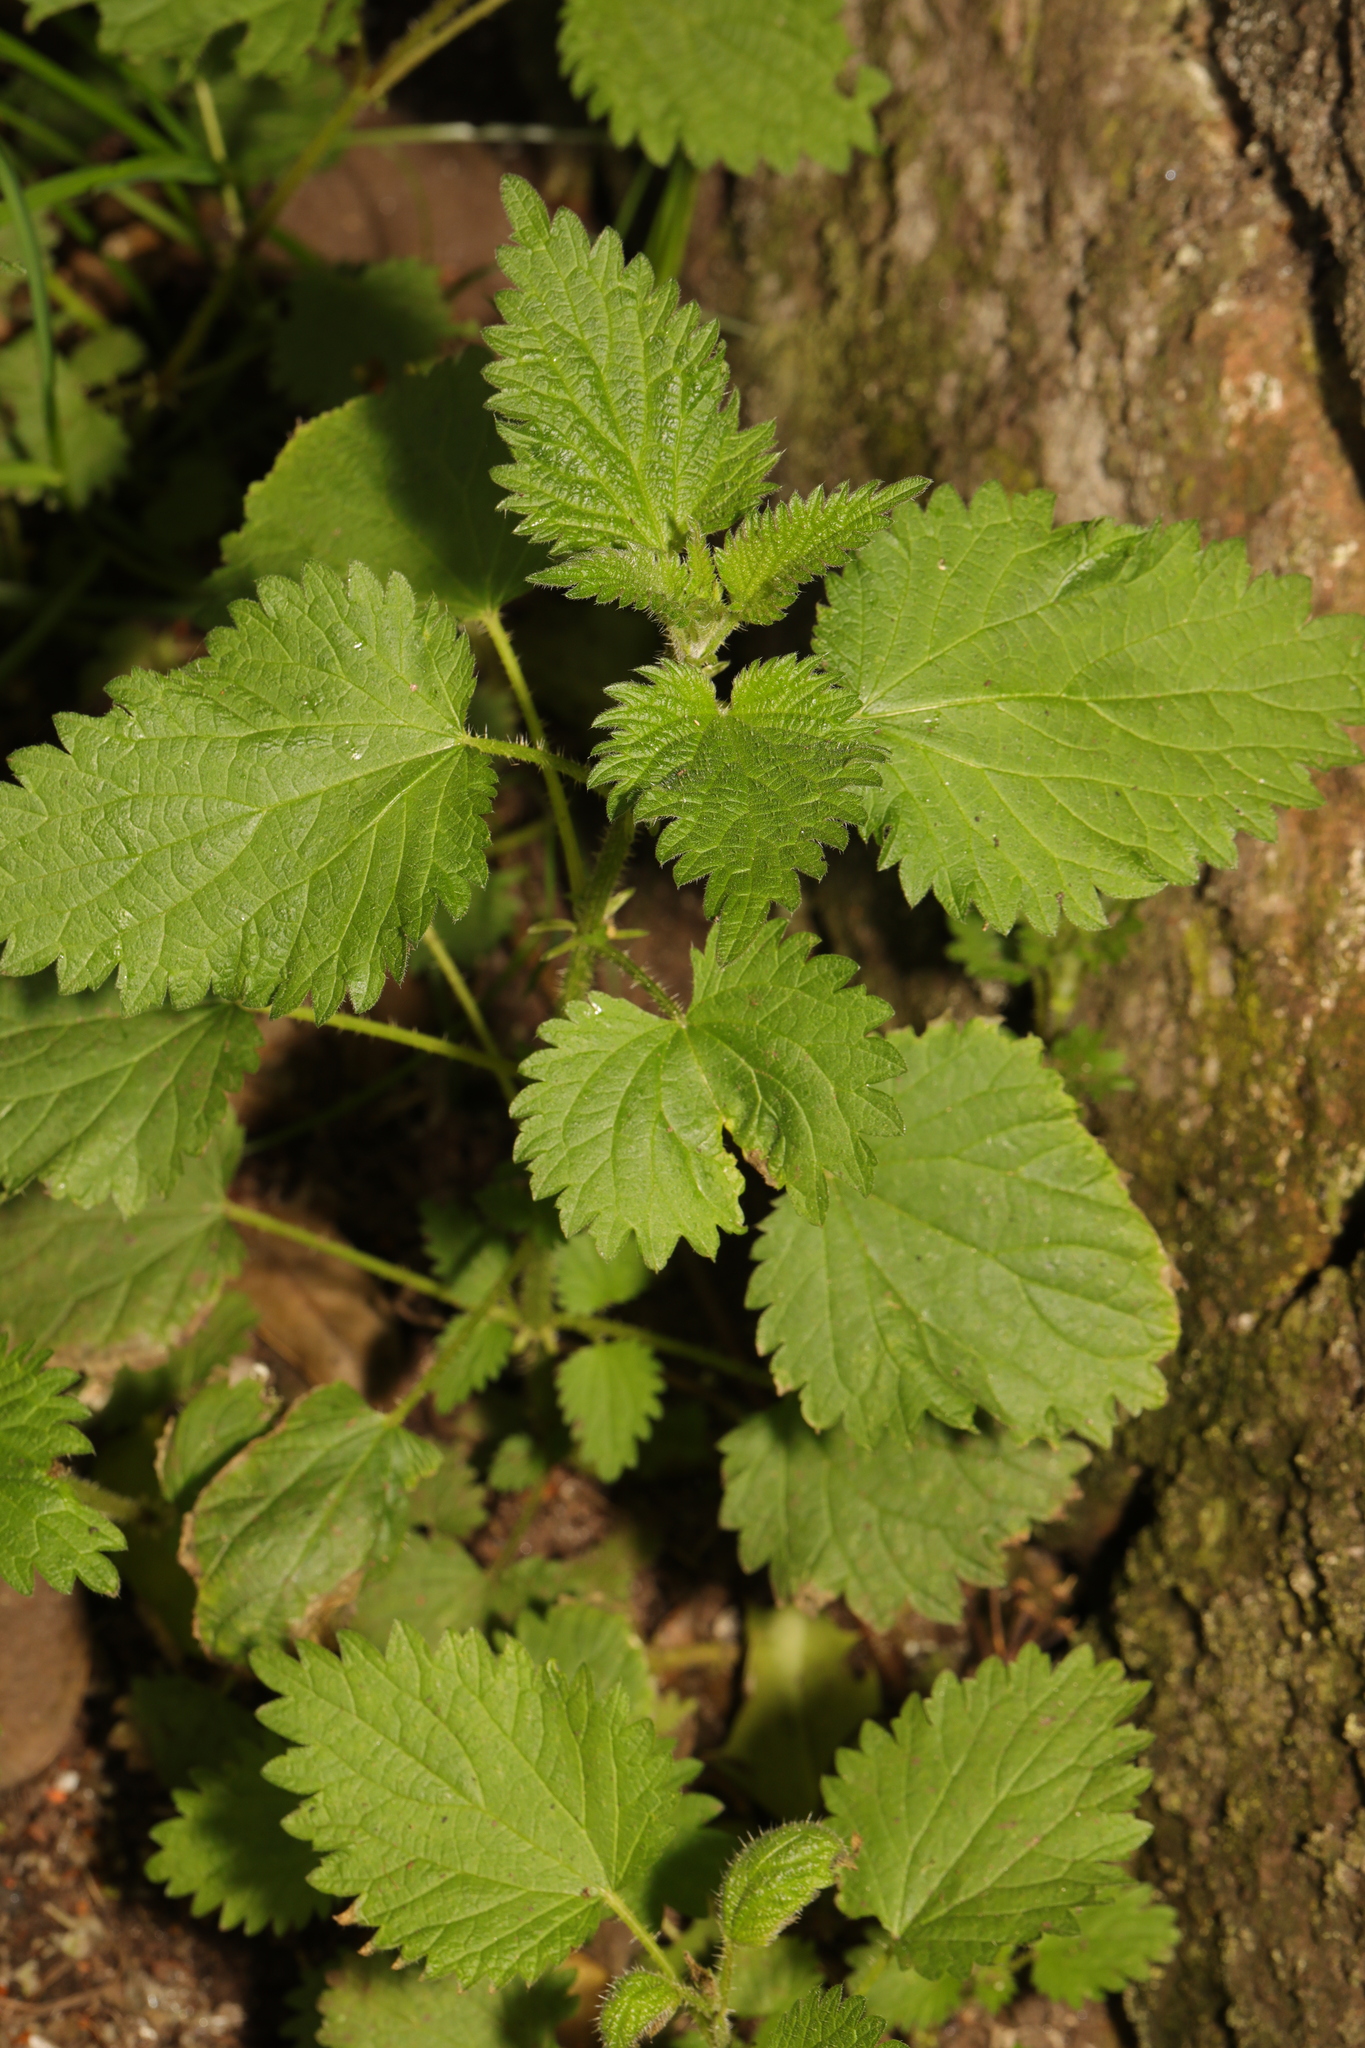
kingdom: Plantae
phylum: Tracheophyta
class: Magnoliopsida
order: Rosales
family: Urticaceae
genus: Urtica
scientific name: Urtica dioica
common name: Common nettle
